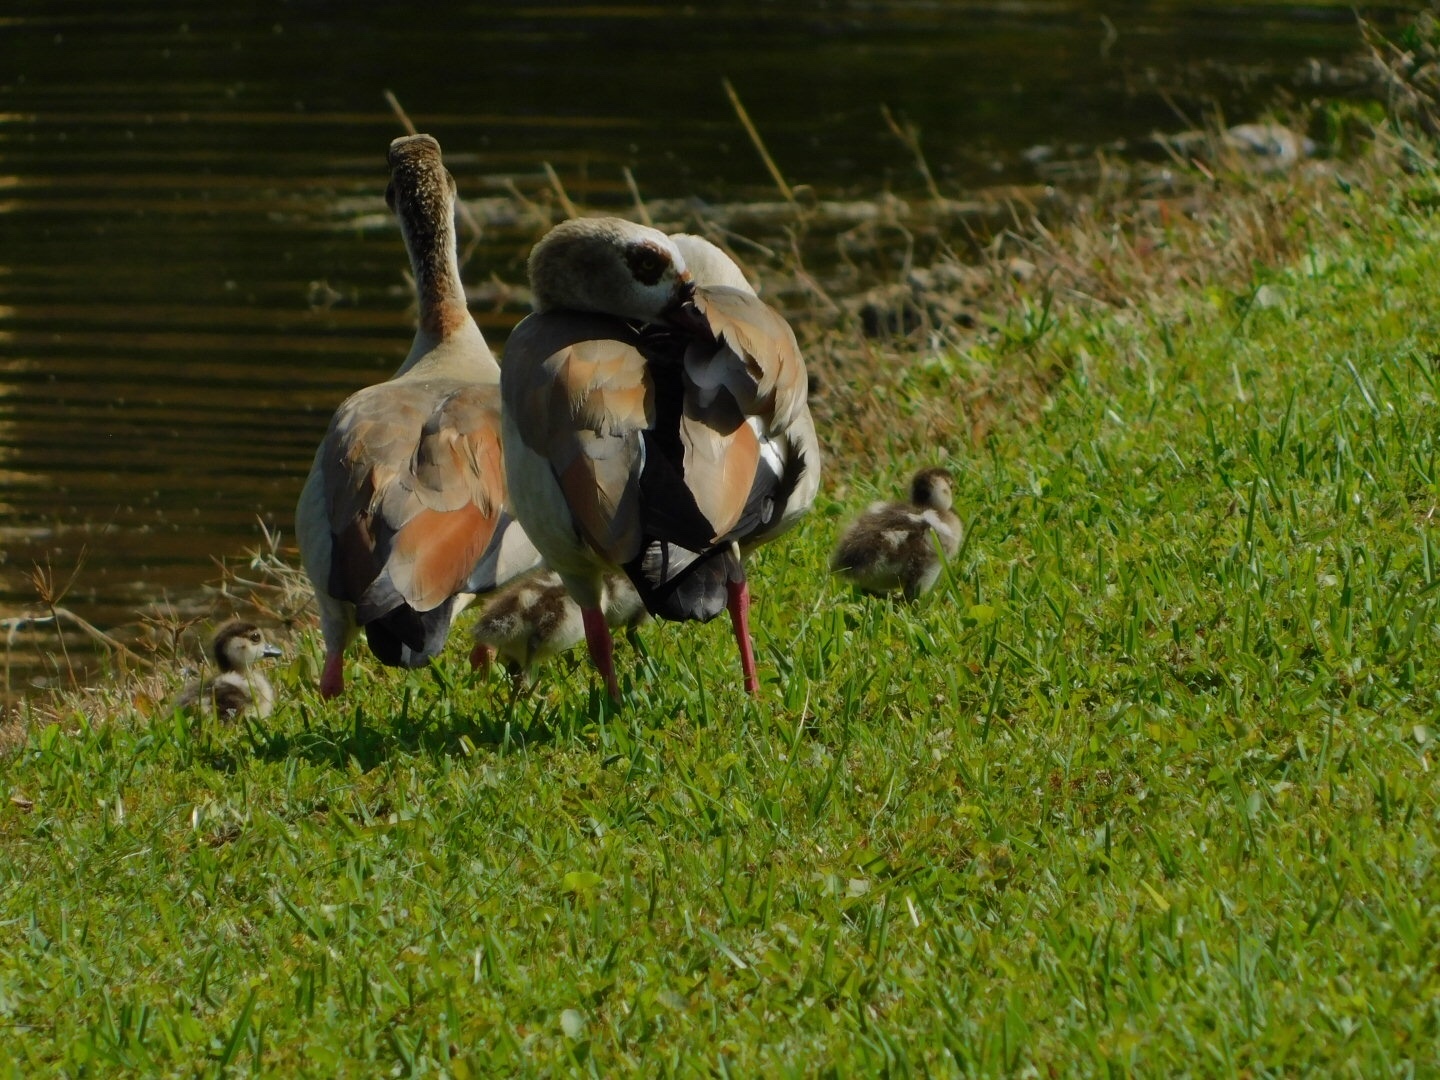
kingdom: Animalia
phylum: Chordata
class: Aves
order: Anseriformes
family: Anatidae
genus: Alopochen
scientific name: Alopochen aegyptiaca
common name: Egyptian goose
